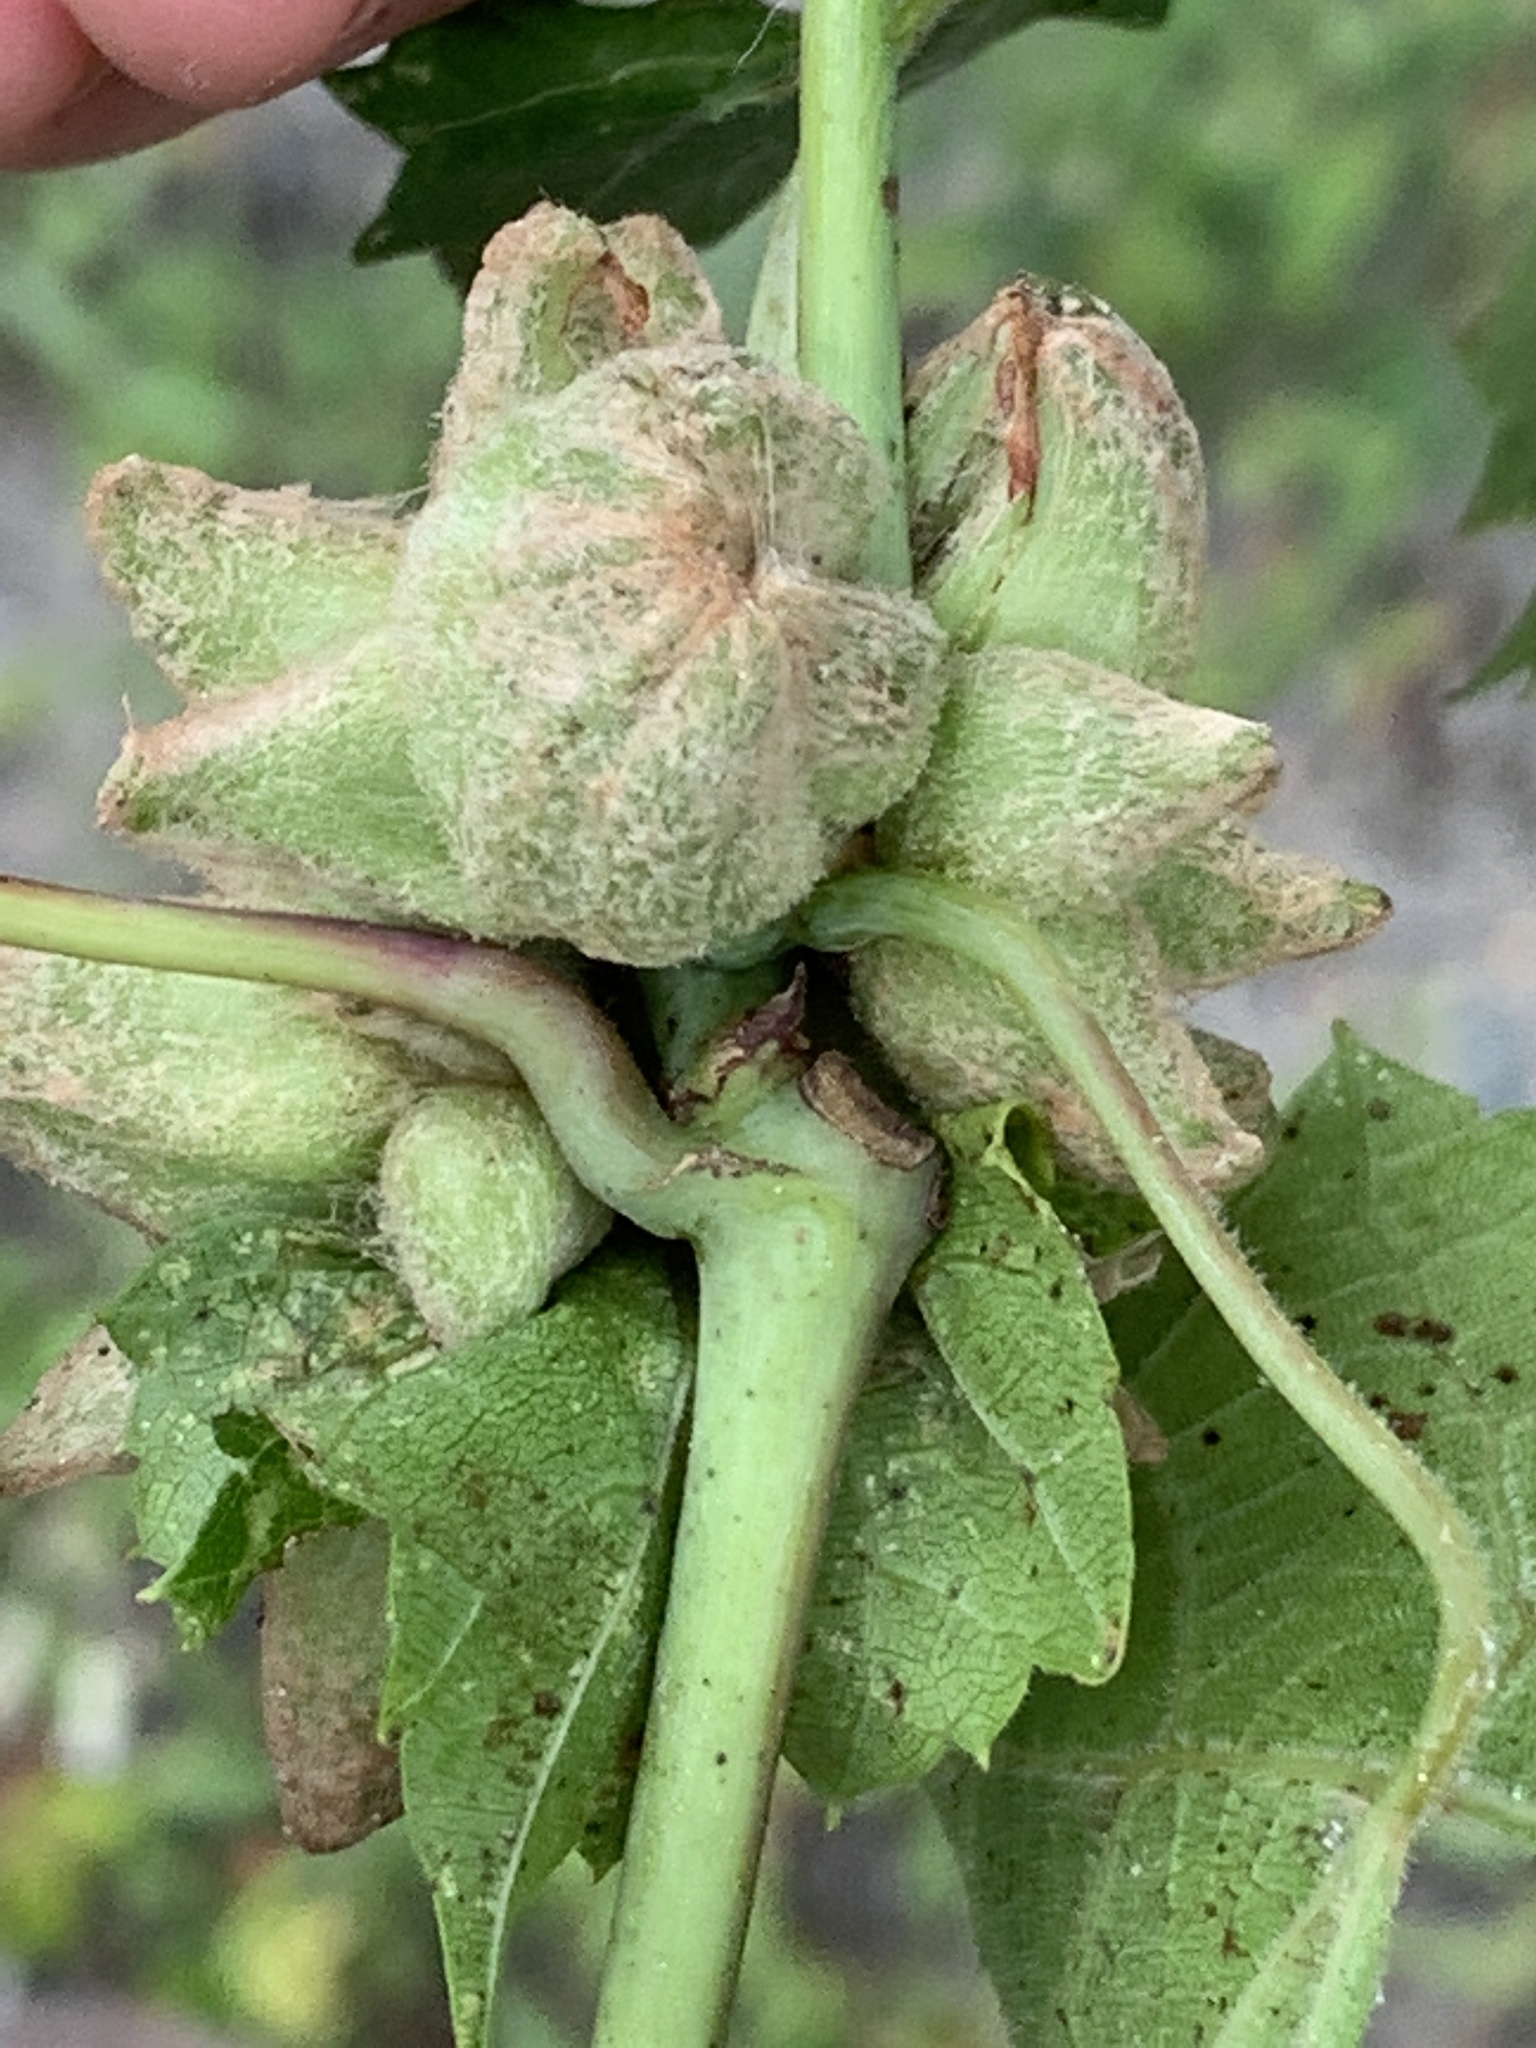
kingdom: Animalia
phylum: Arthropoda
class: Insecta
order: Diptera
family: Cecidomyiidae
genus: Ampelomyia
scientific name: Ampelomyia vitiscoryloides
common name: Grape filbert gall
